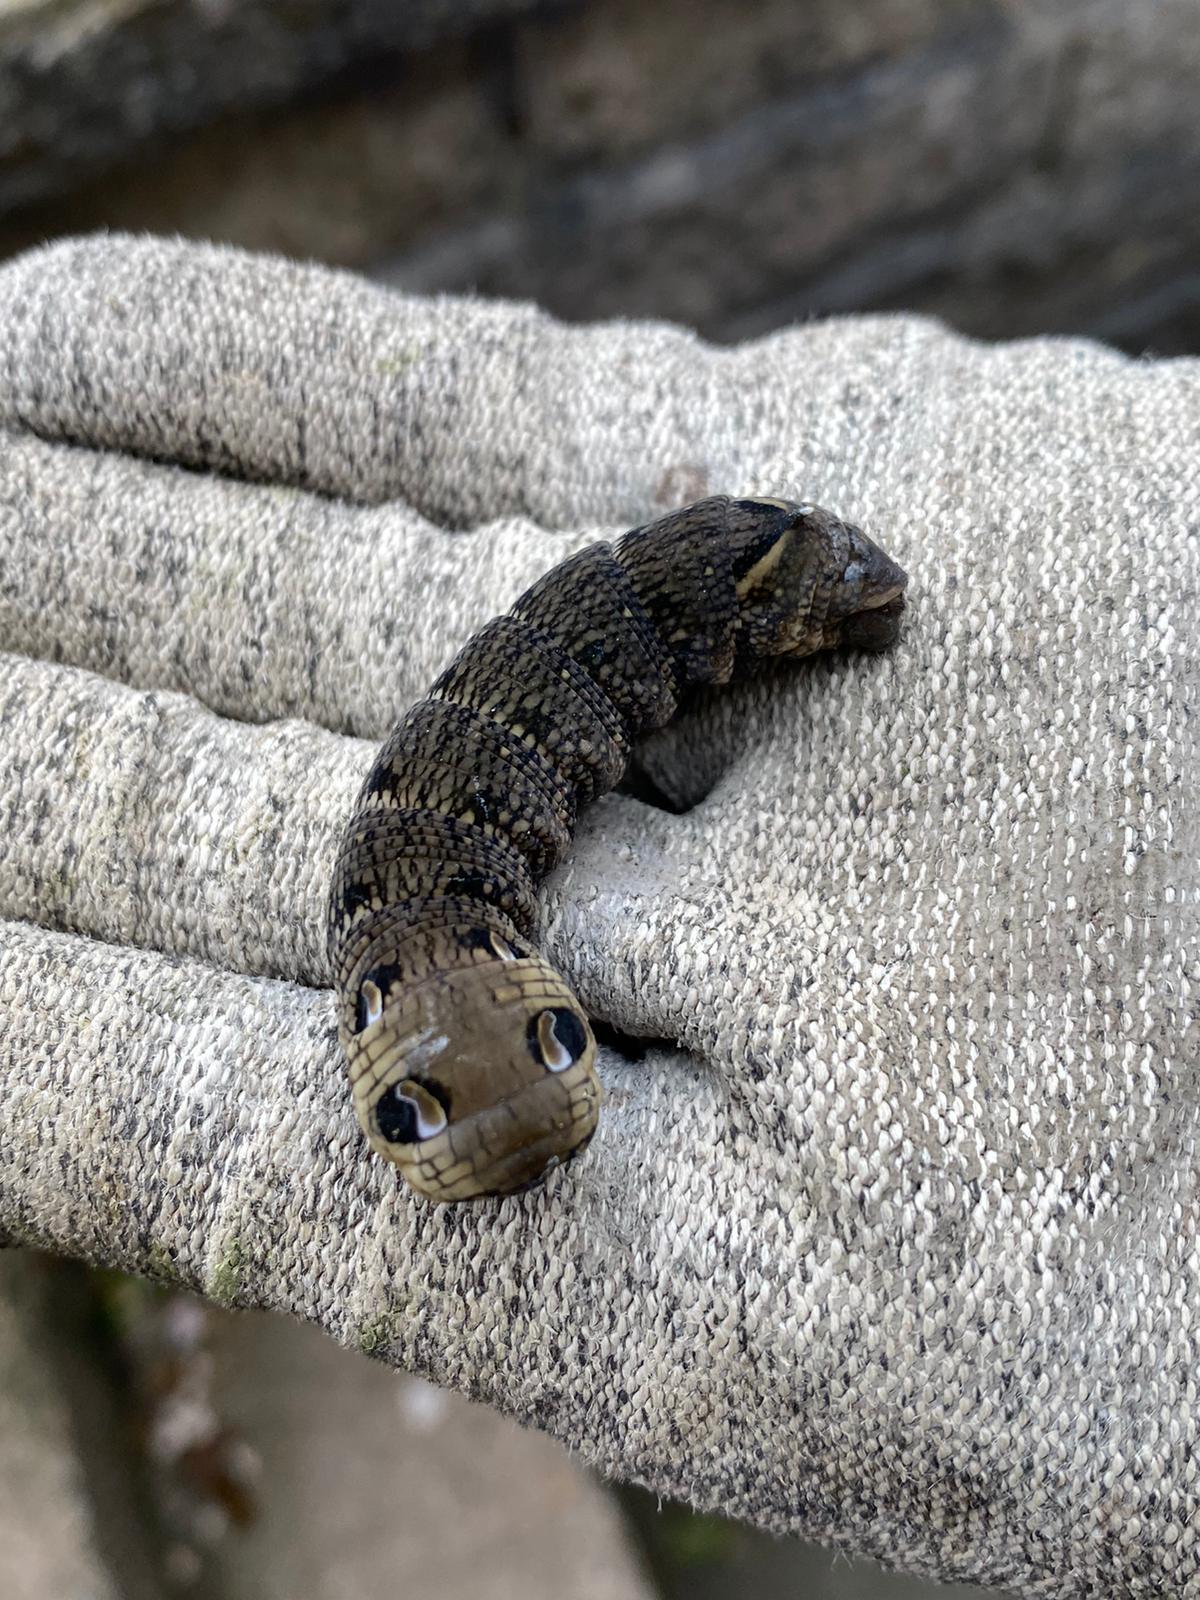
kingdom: Animalia
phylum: Arthropoda
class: Insecta
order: Lepidoptera
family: Sphingidae
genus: Deilephila
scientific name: Deilephila elpenor
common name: Elephant hawk-moth
